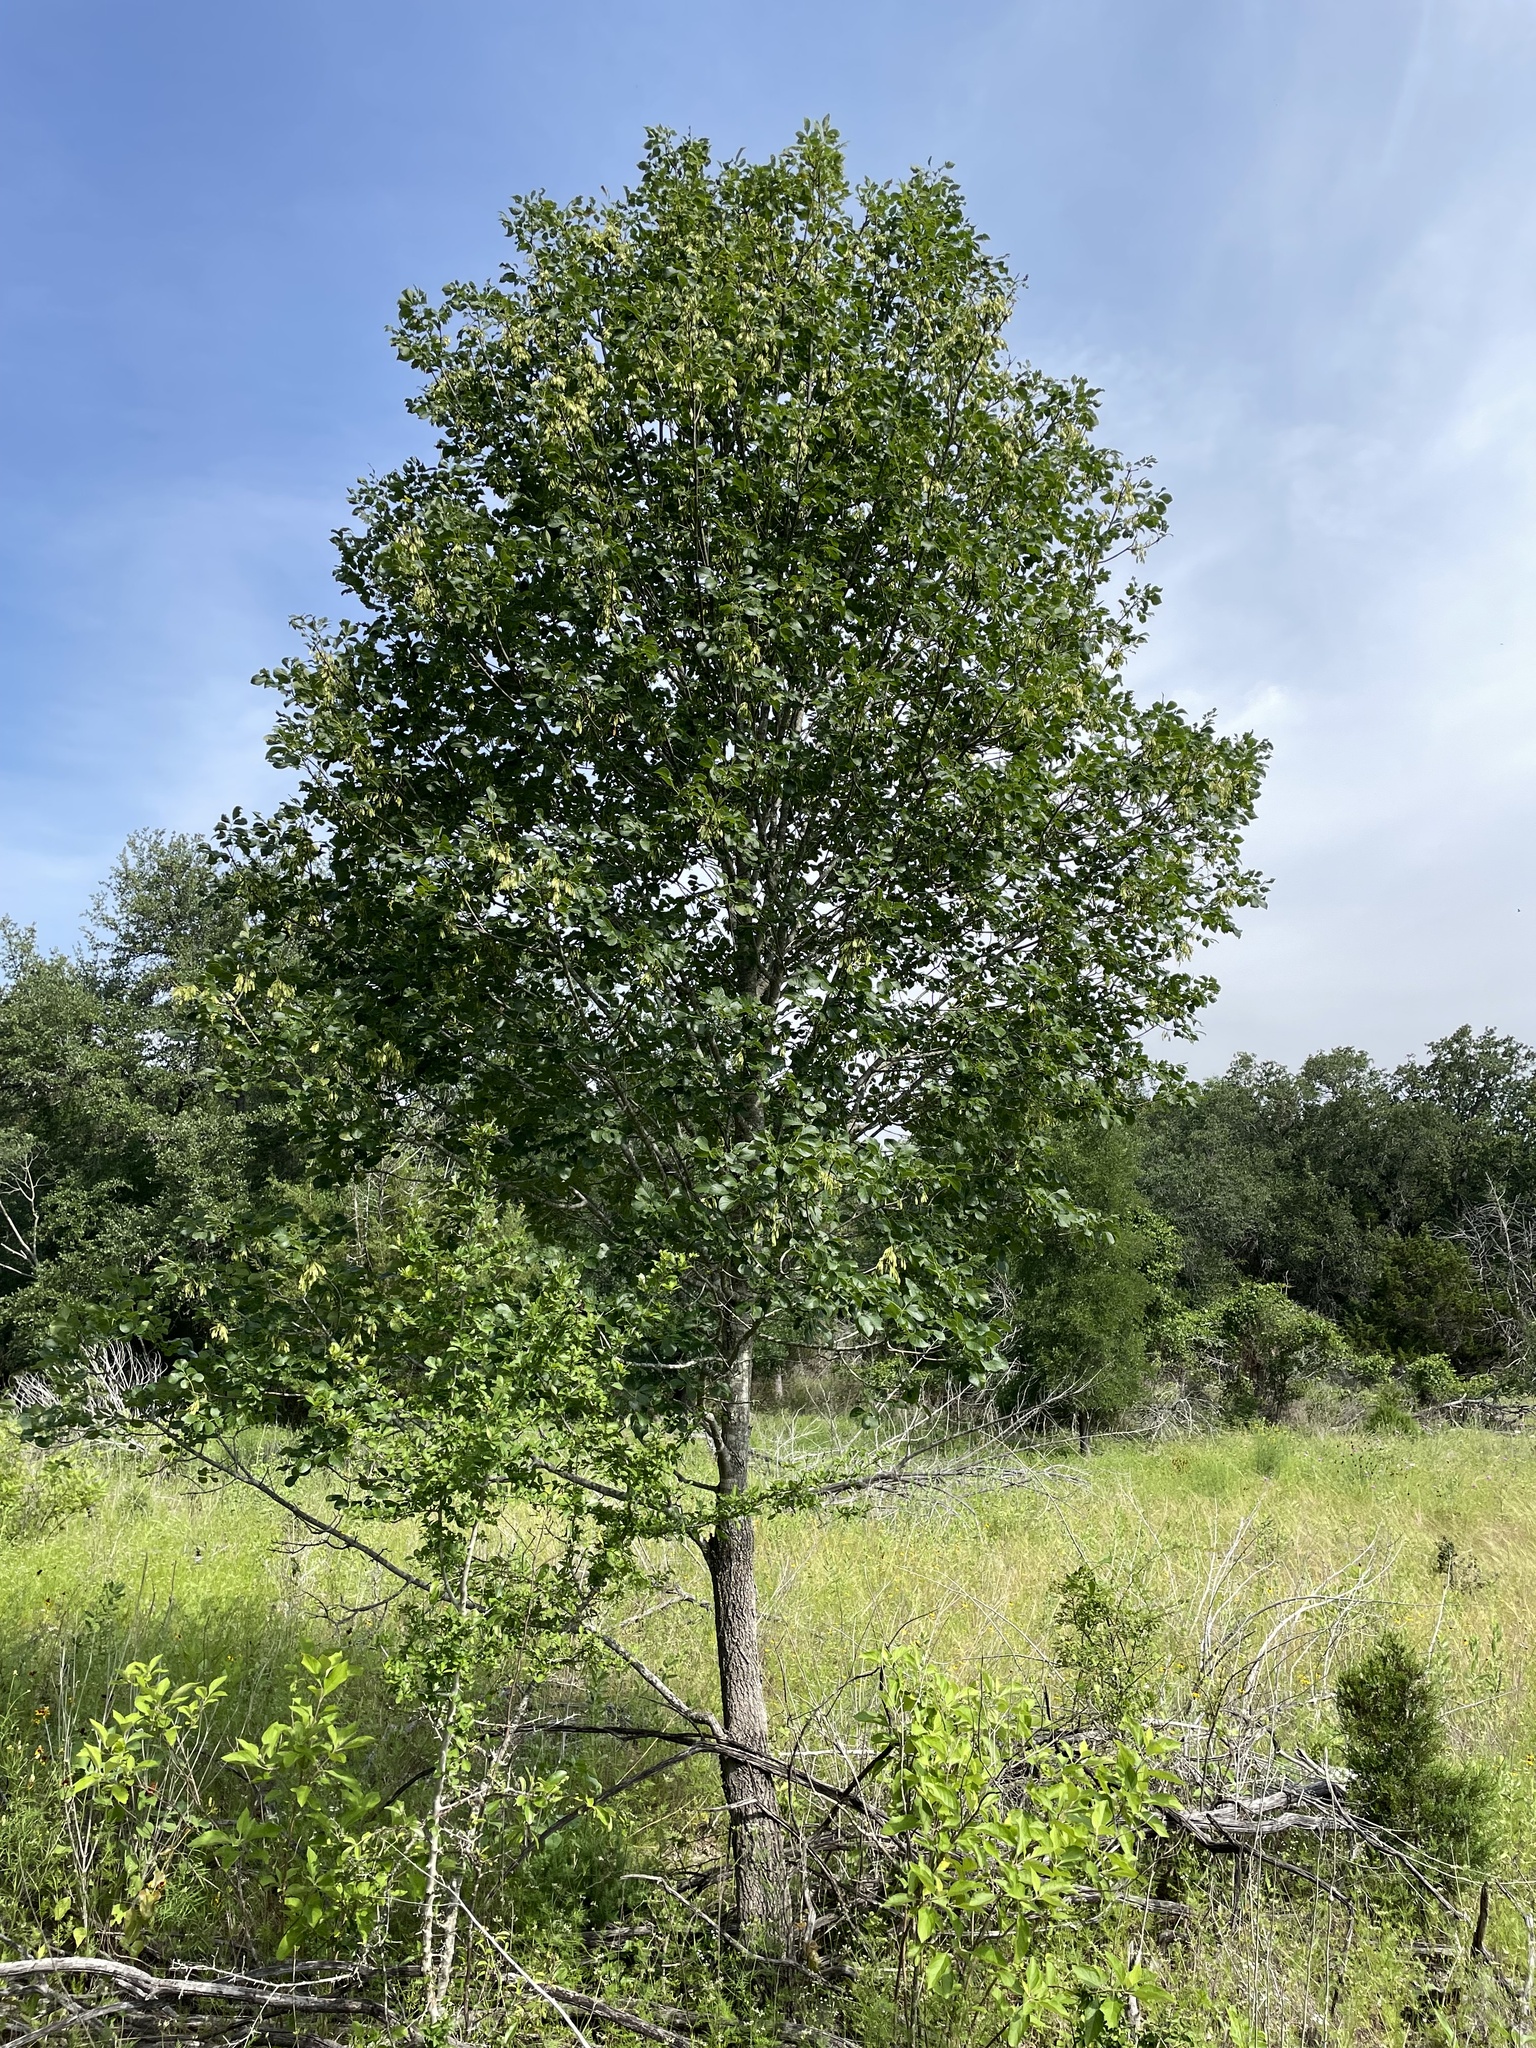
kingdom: Plantae
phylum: Tracheophyta
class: Magnoliopsida
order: Lamiales
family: Oleaceae
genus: Fraxinus
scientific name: Fraxinus albicans
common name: Texas ash
